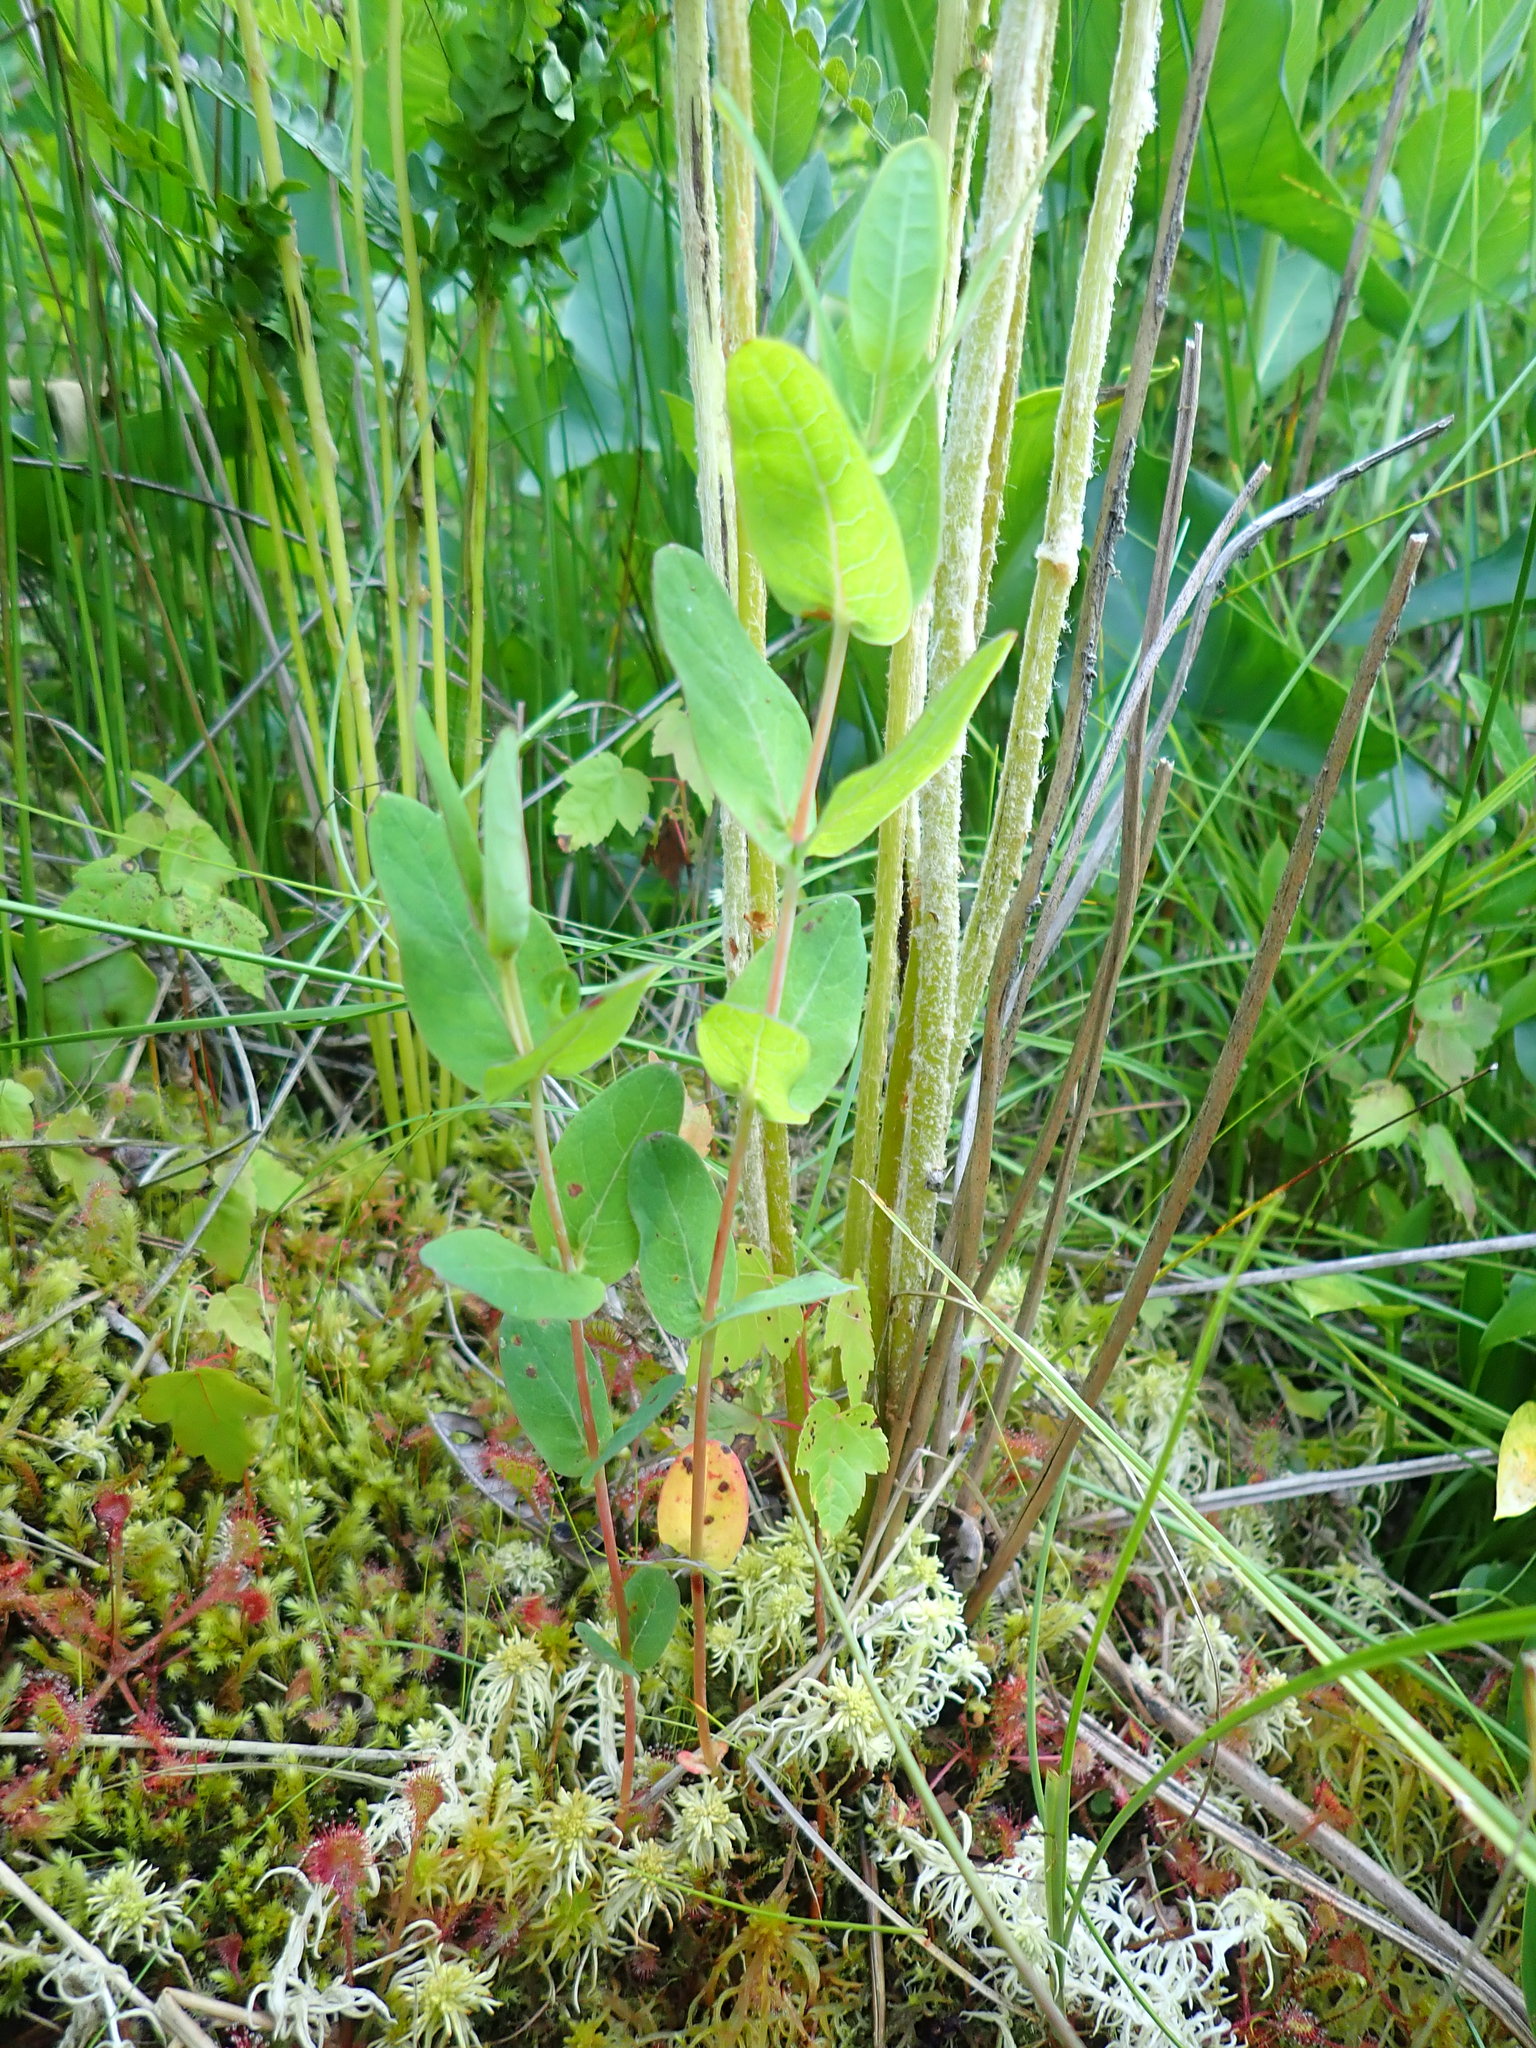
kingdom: Plantae
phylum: Tracheophyta
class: Magnoliopsida
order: Malpighiales
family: Hypericaceae
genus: Triadenum
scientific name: Triadenum fraseri
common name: Fraser's marsh st. johnswort
